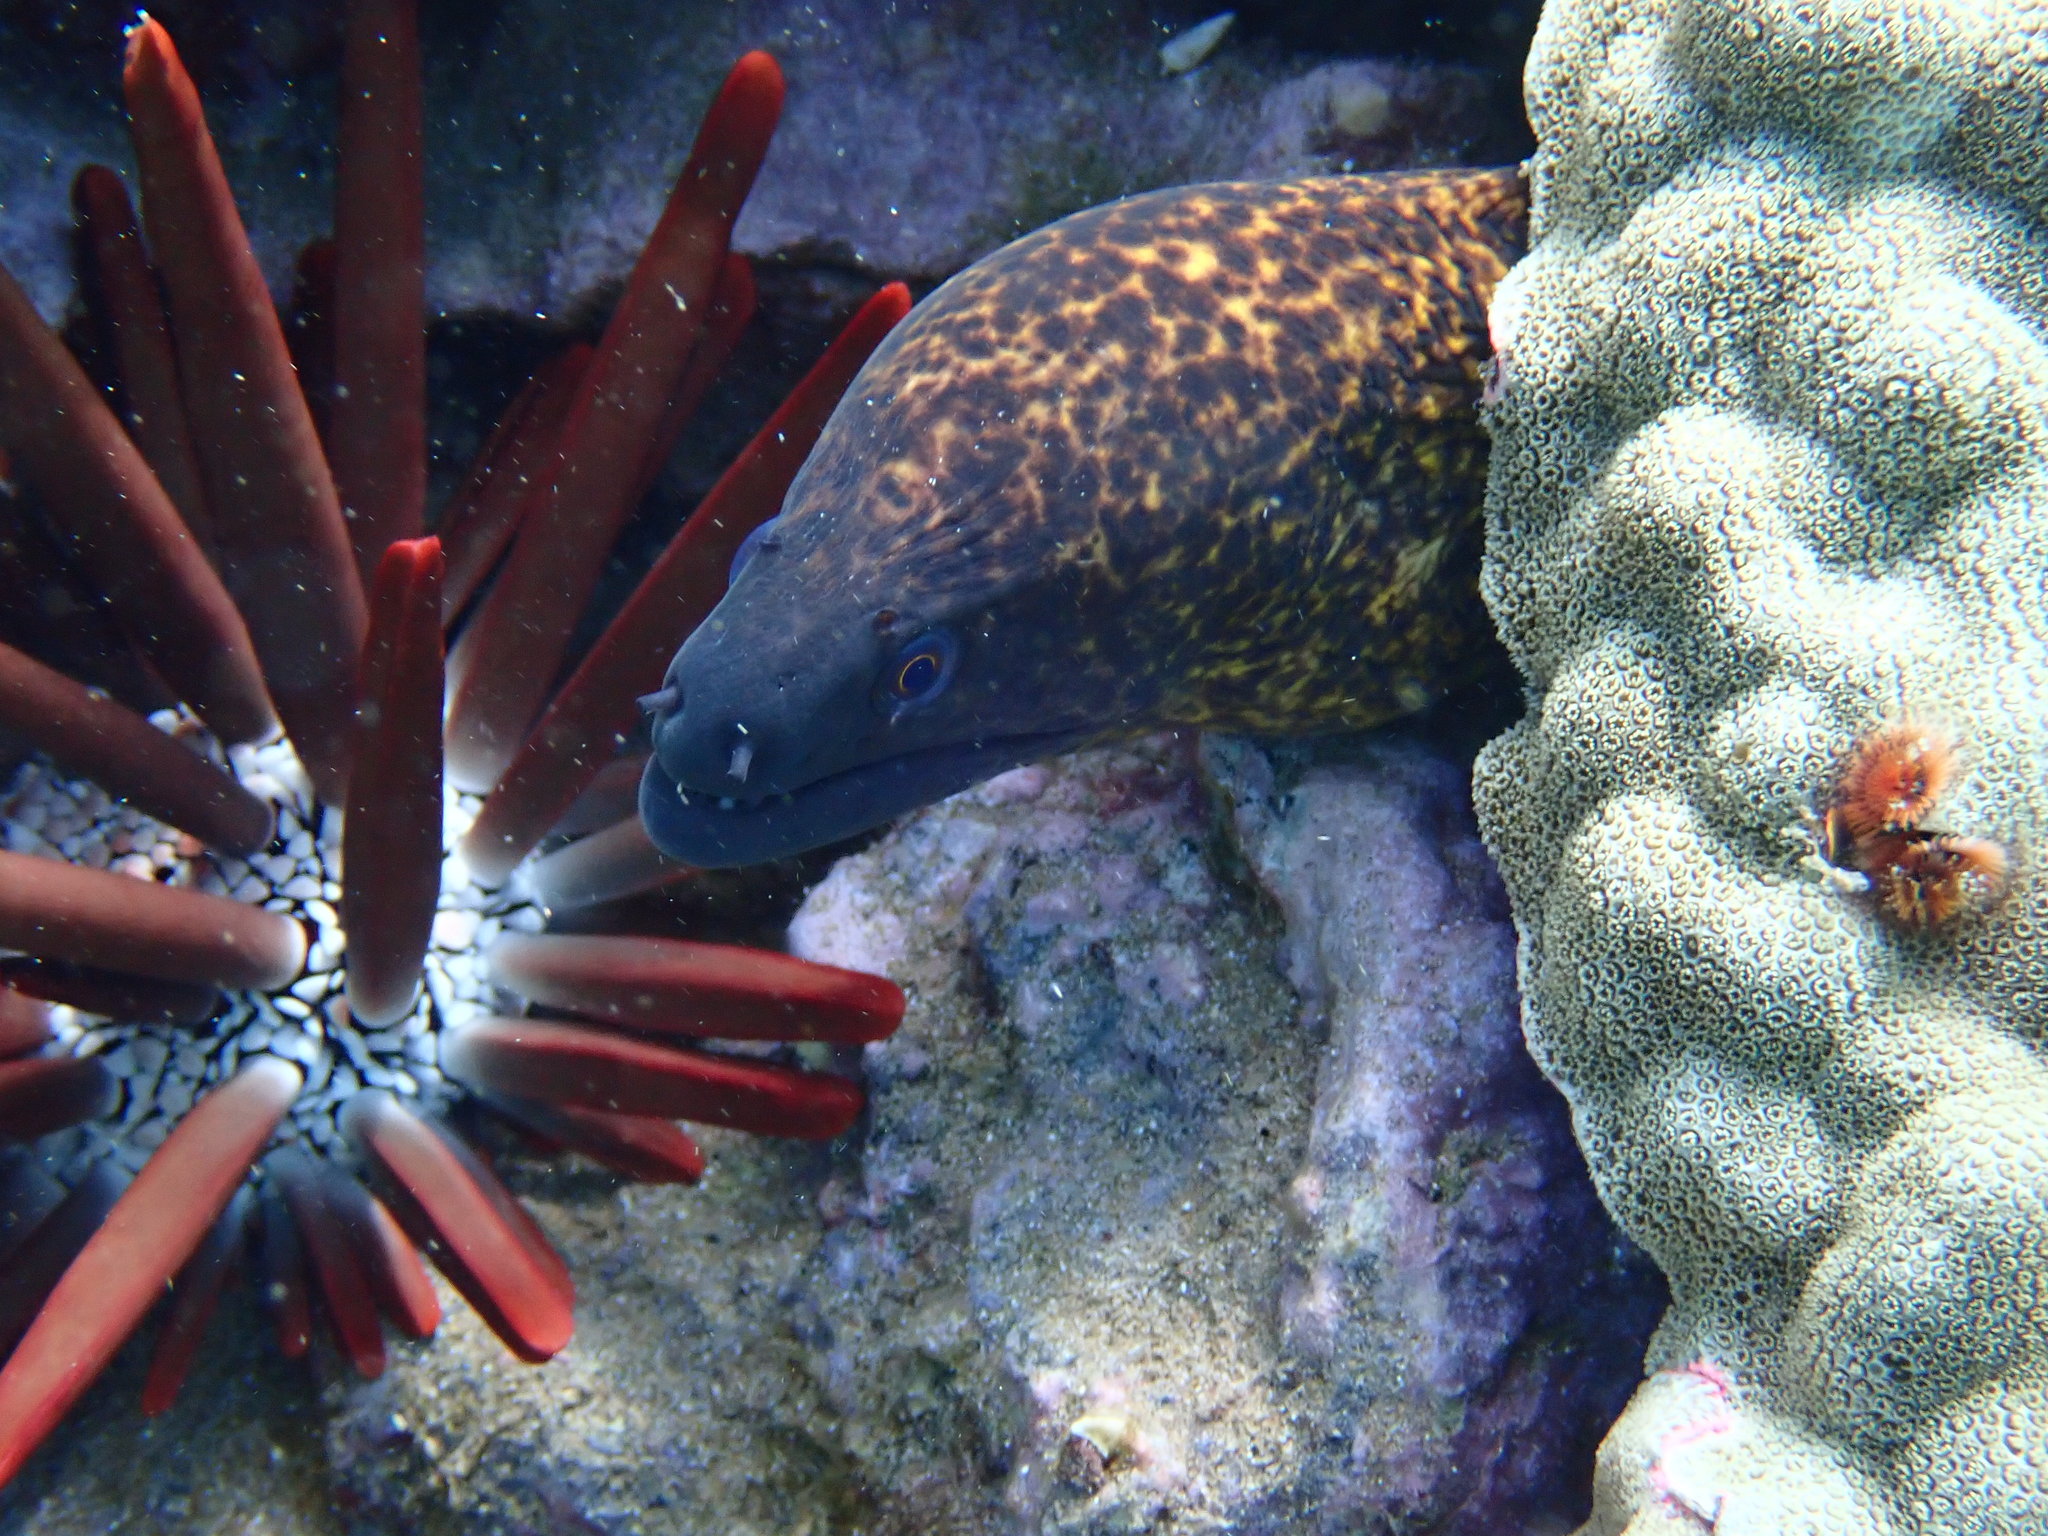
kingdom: Animalia
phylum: Chordata
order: Anguilliformes
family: Muraenidae
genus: Gymnothorax
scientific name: Gymnothorax flavimarginatus
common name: Yellow-edged moray
